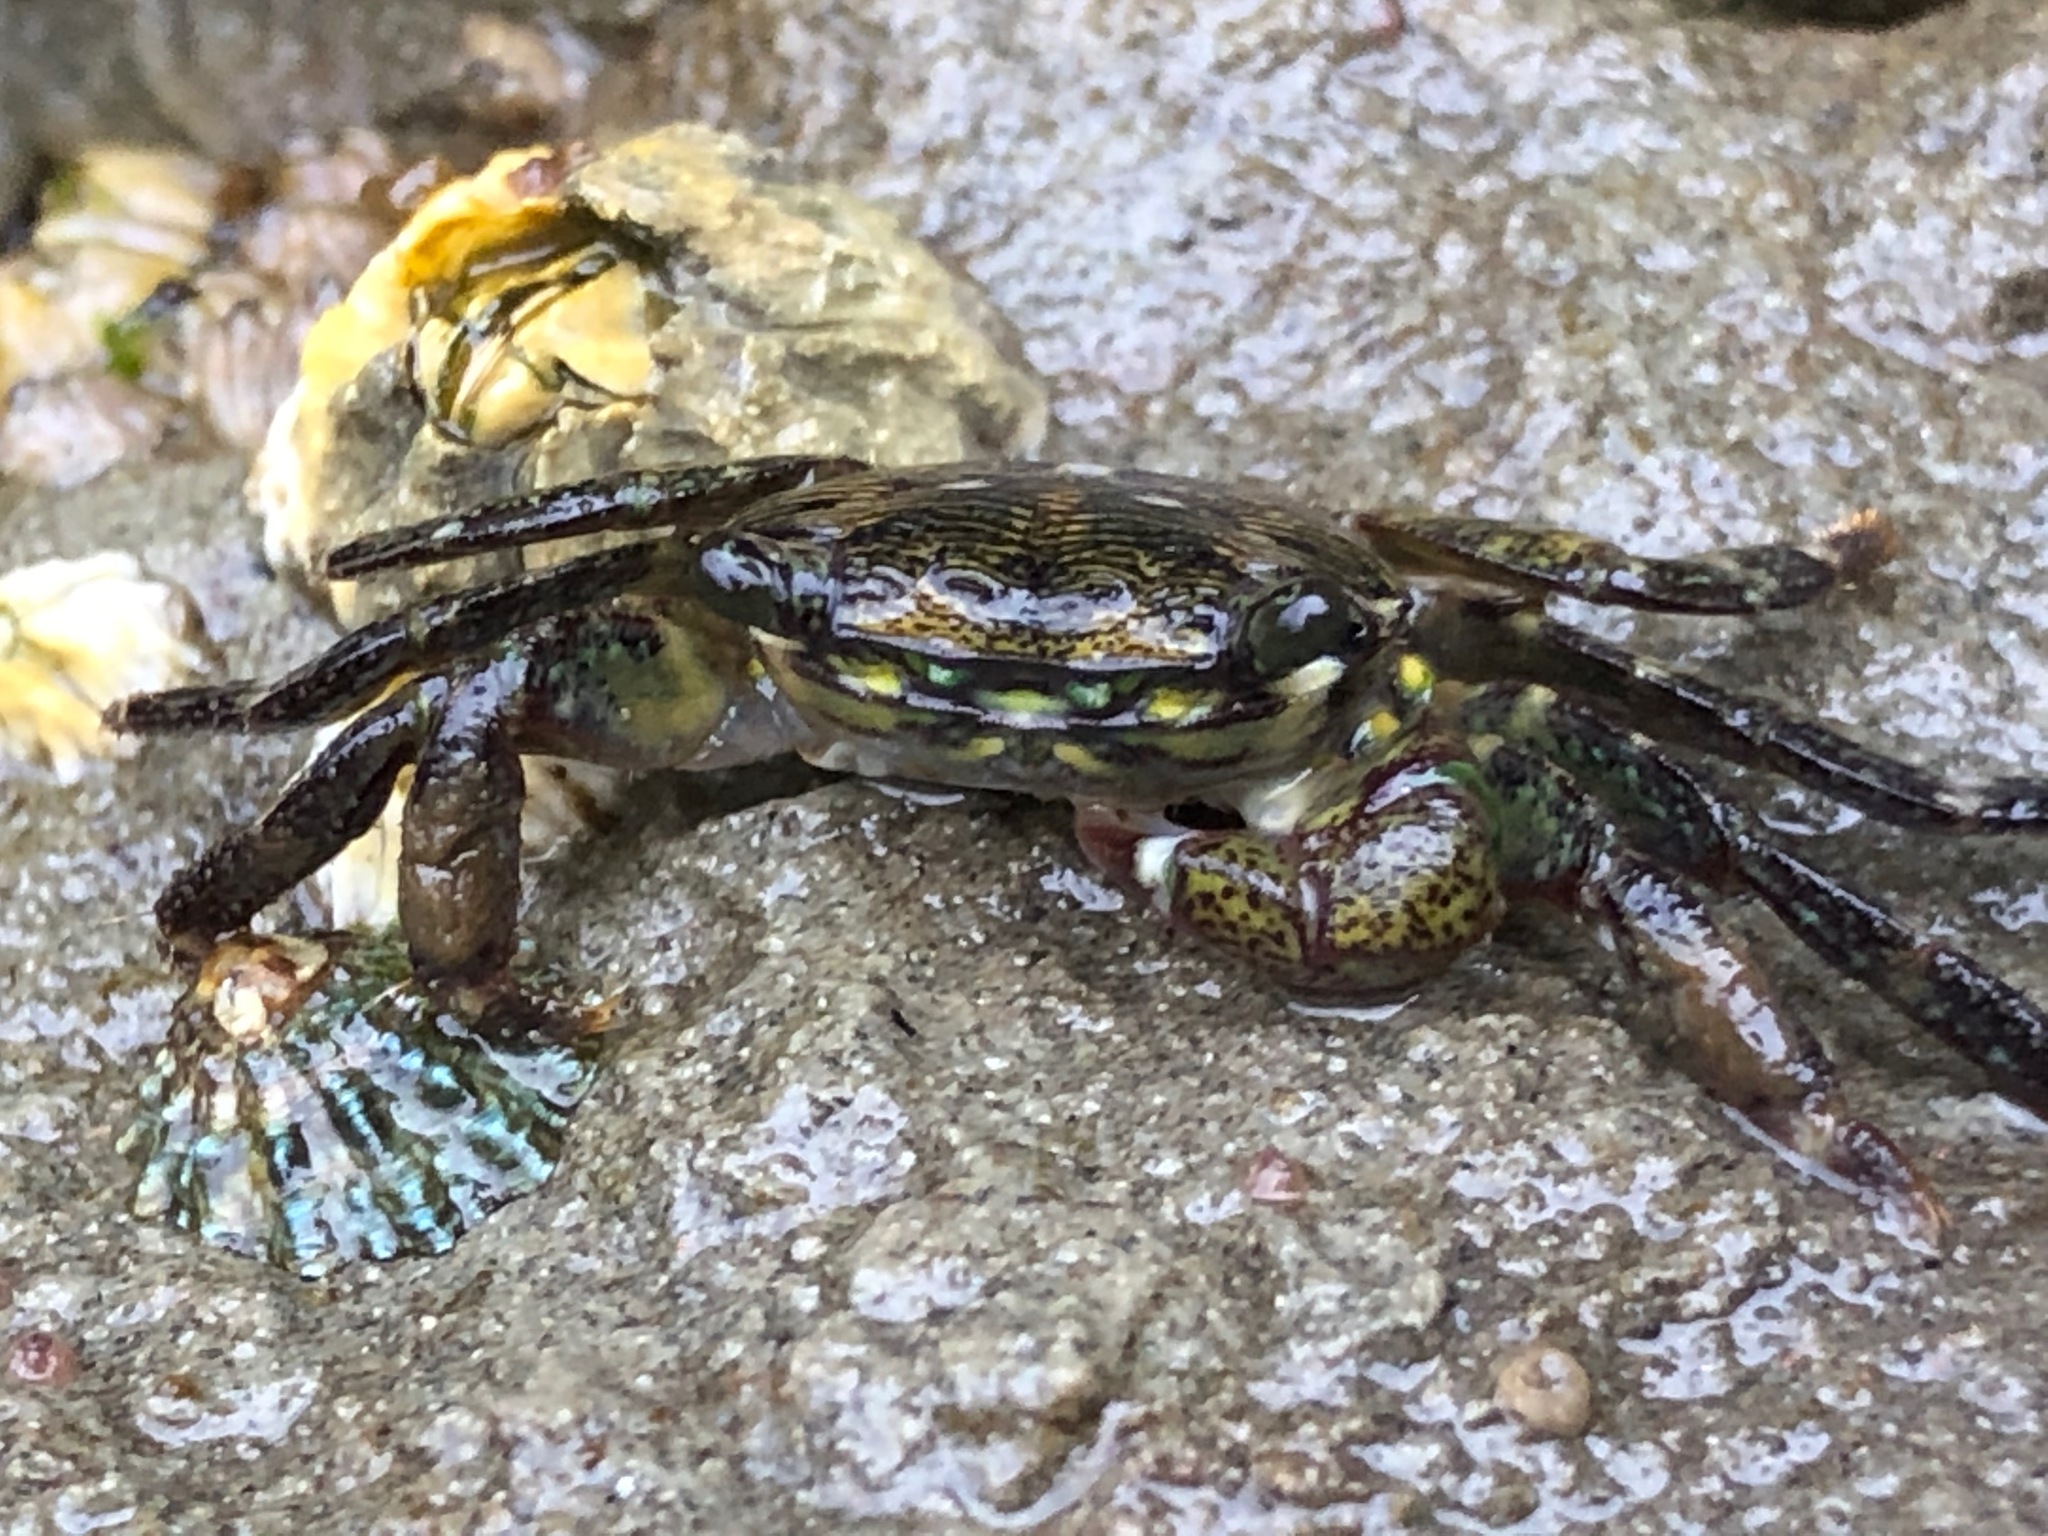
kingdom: Animalia
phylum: Arthropoda
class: Malacostraca
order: Decapoda
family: Grapsidae
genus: Pachygrapsus
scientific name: Pachygrapsus crassipes
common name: Striped shore crab
